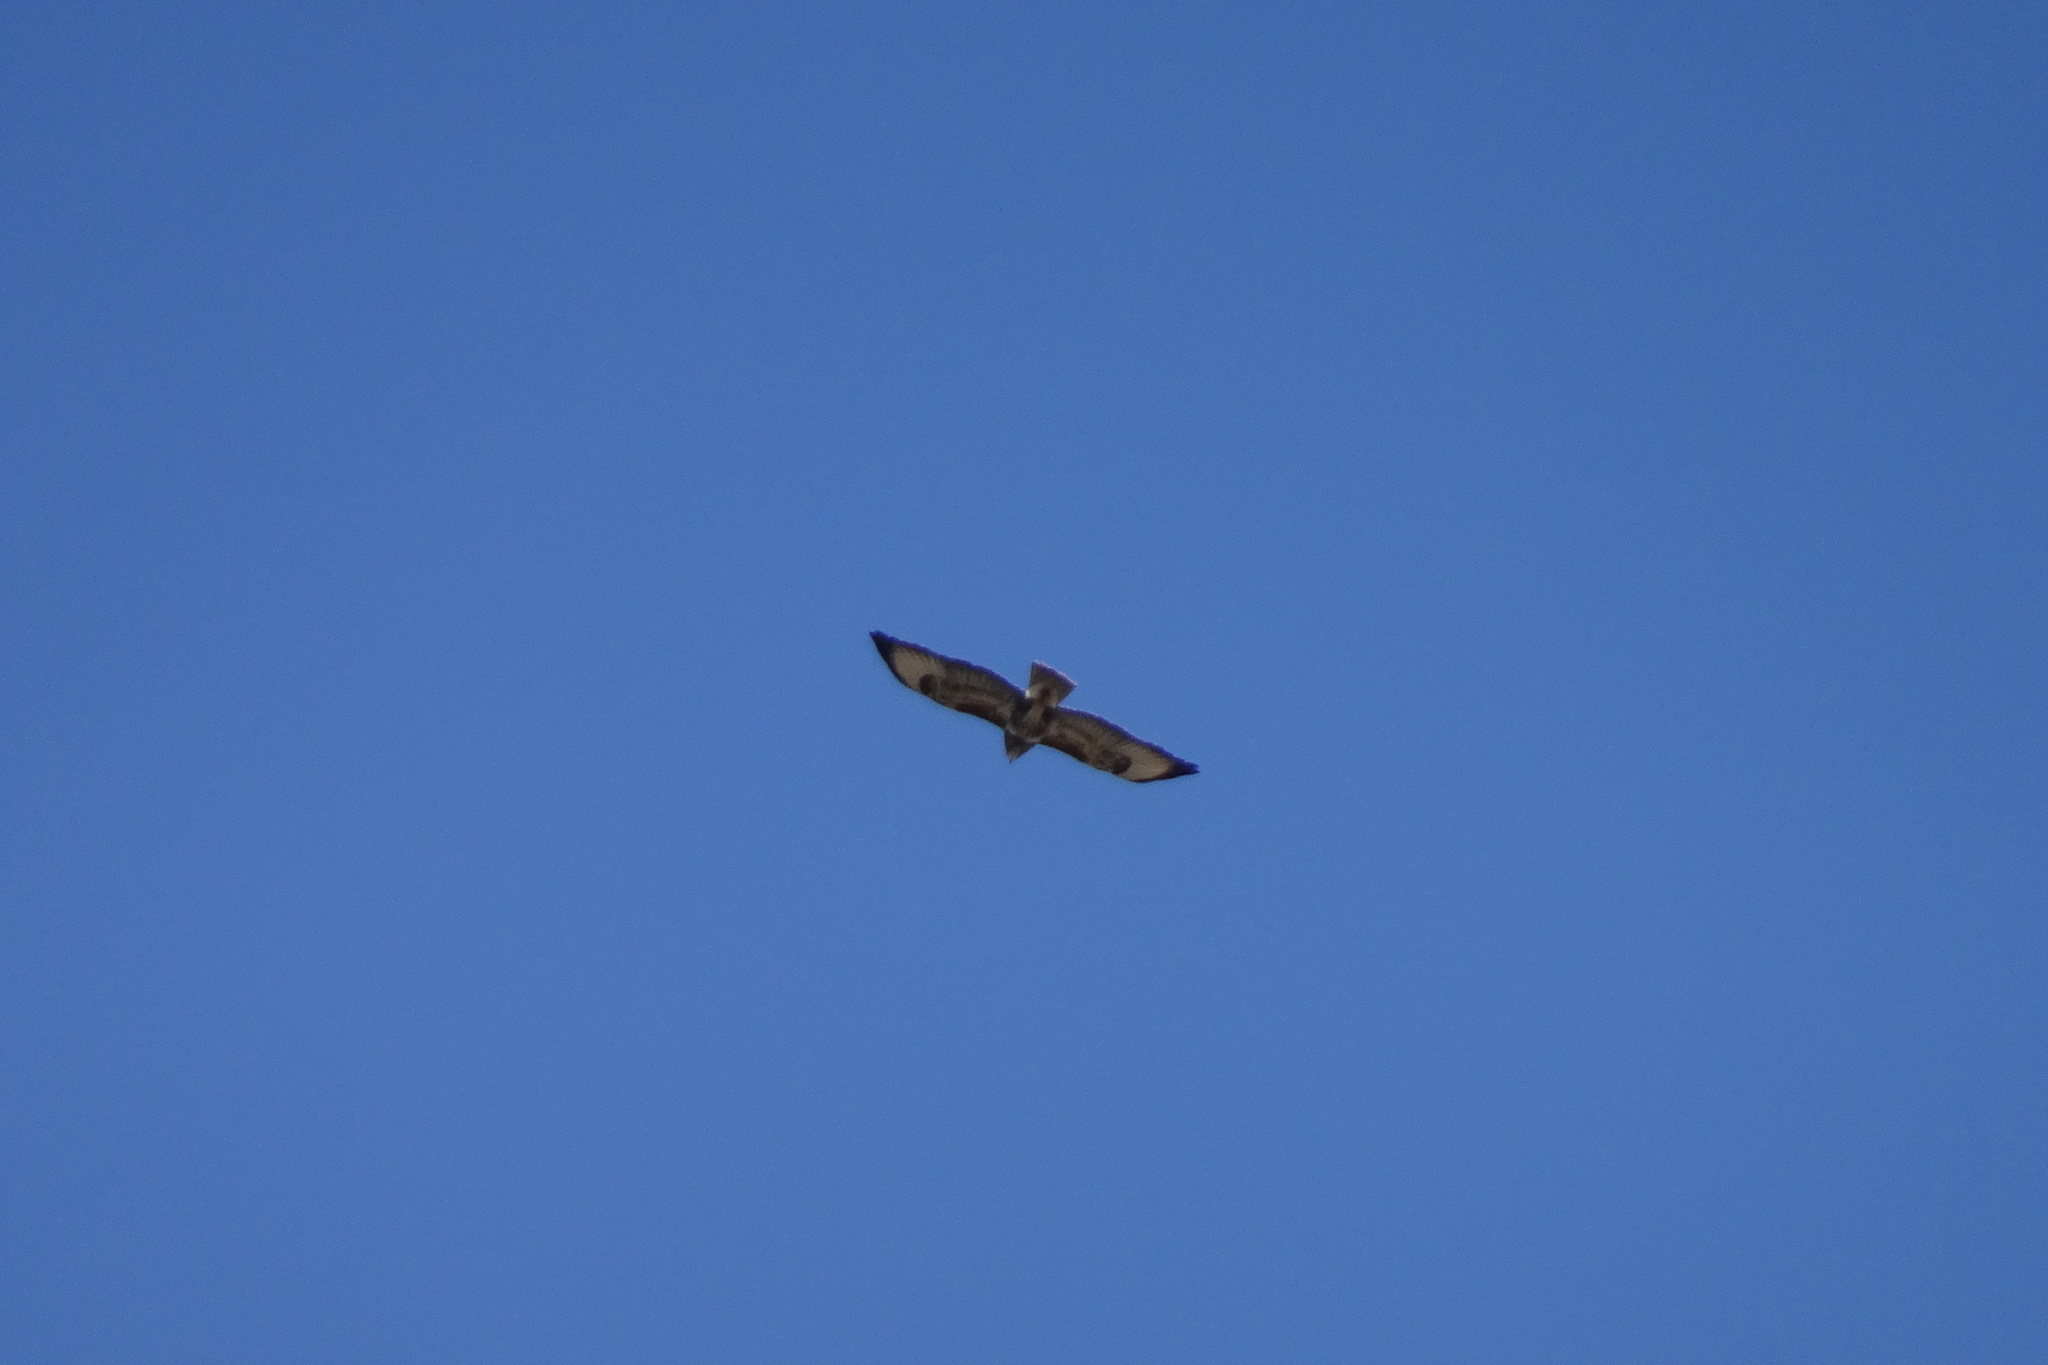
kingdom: Animalia
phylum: Chordata
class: Aves
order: Accipitriformes
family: Accipitridae
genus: Buteo
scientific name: Buteo buteo
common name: Common buzzard
